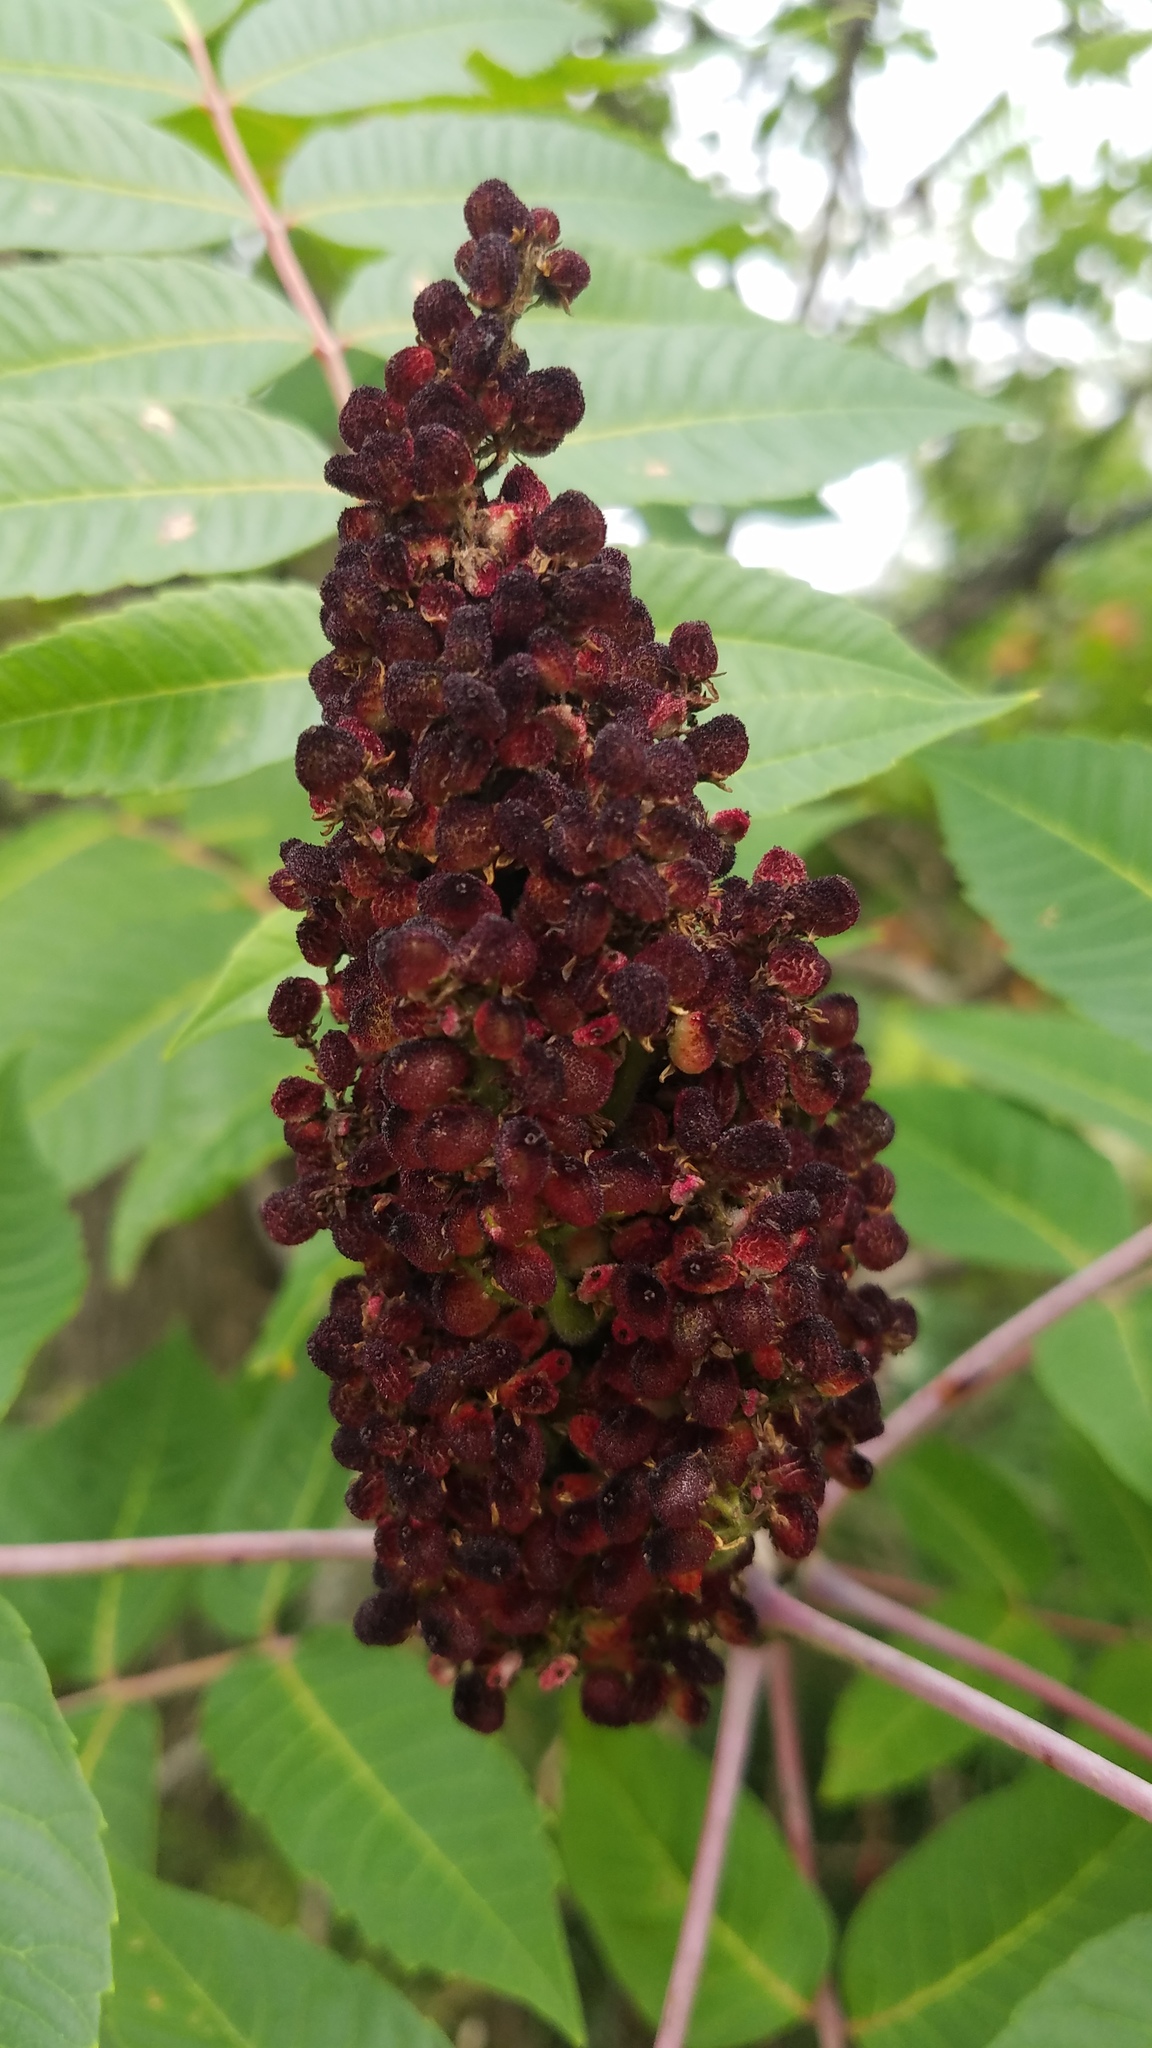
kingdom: Plantae
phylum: Tracheophyta
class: Magnoliopsida
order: Sapindales
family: Anacardiaceae
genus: Rhus
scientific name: Rhus glabra
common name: Scarlet sumac
